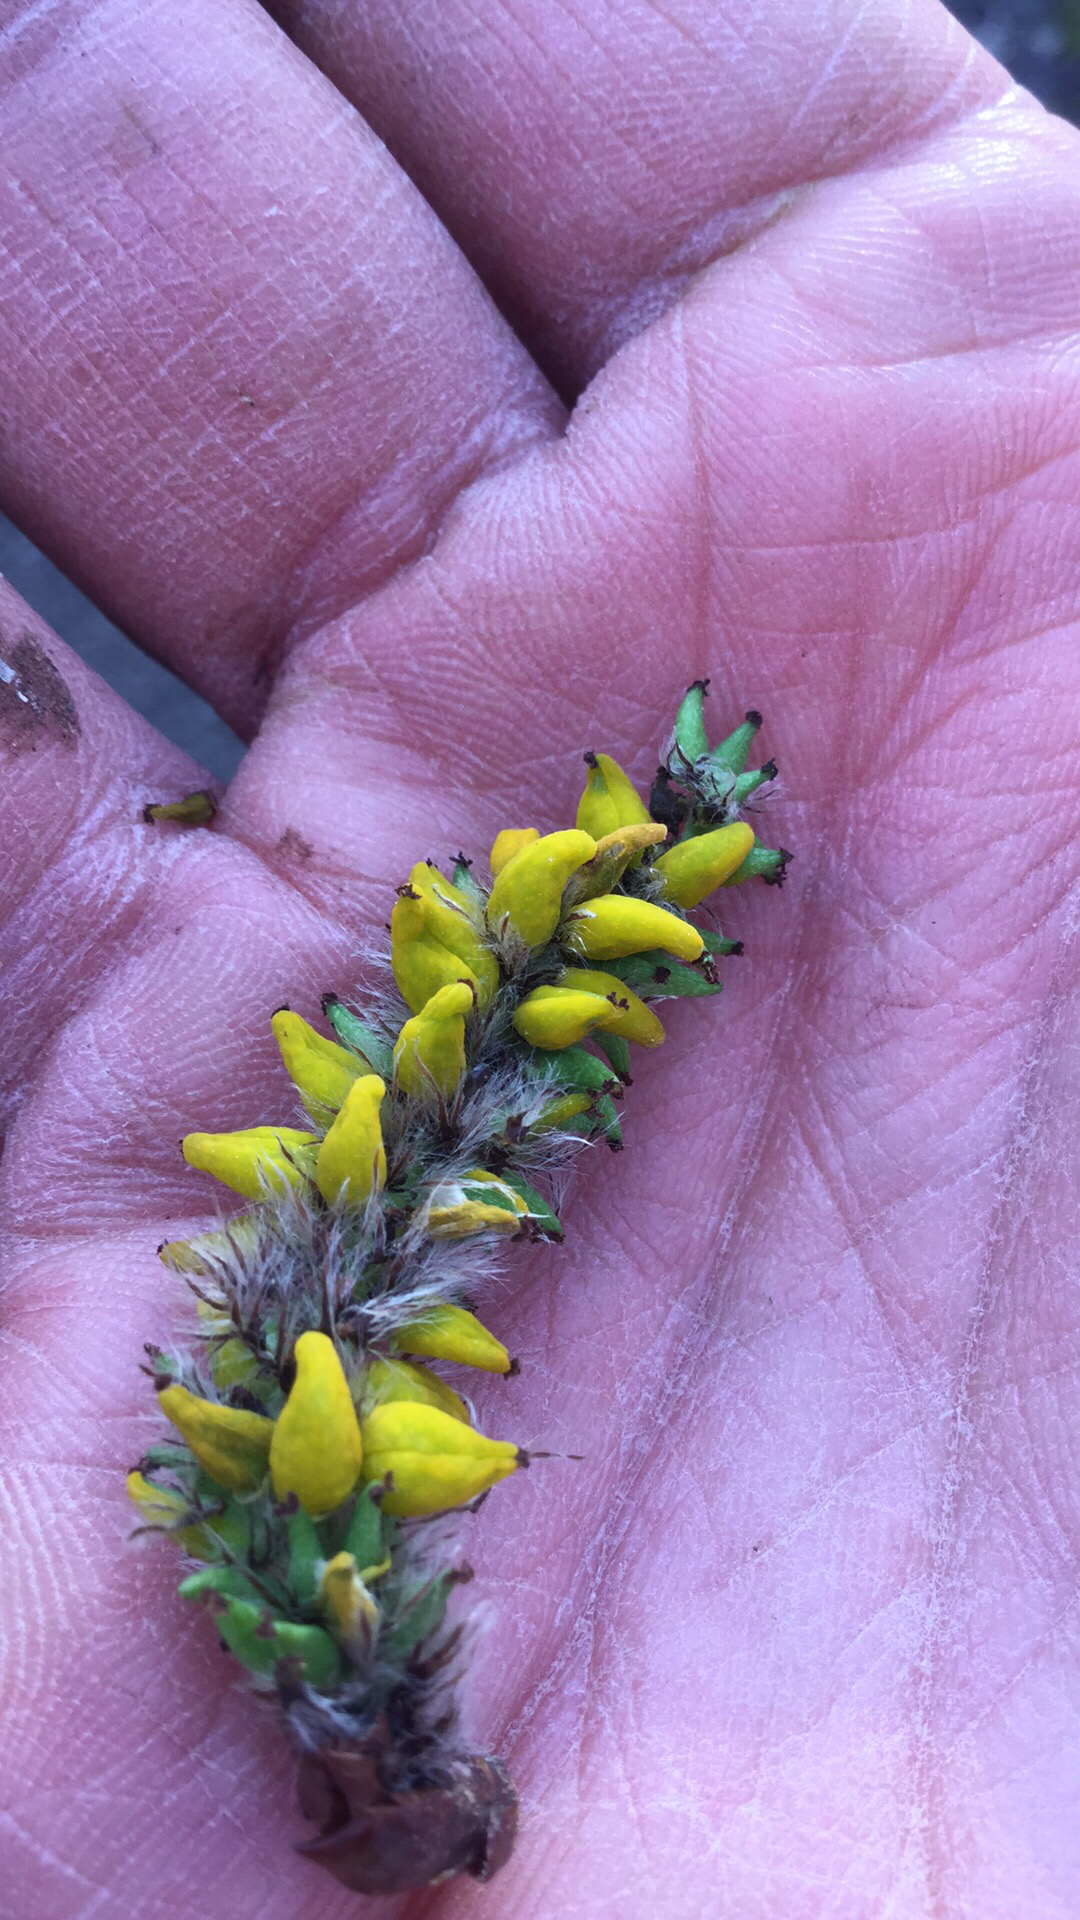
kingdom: Fungi
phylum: Ascomycota
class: Taphrinomycetes
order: Taphrinales
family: Taphrinaceae
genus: Taphrina
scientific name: Taphrina johansonii
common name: Aspen tongue
